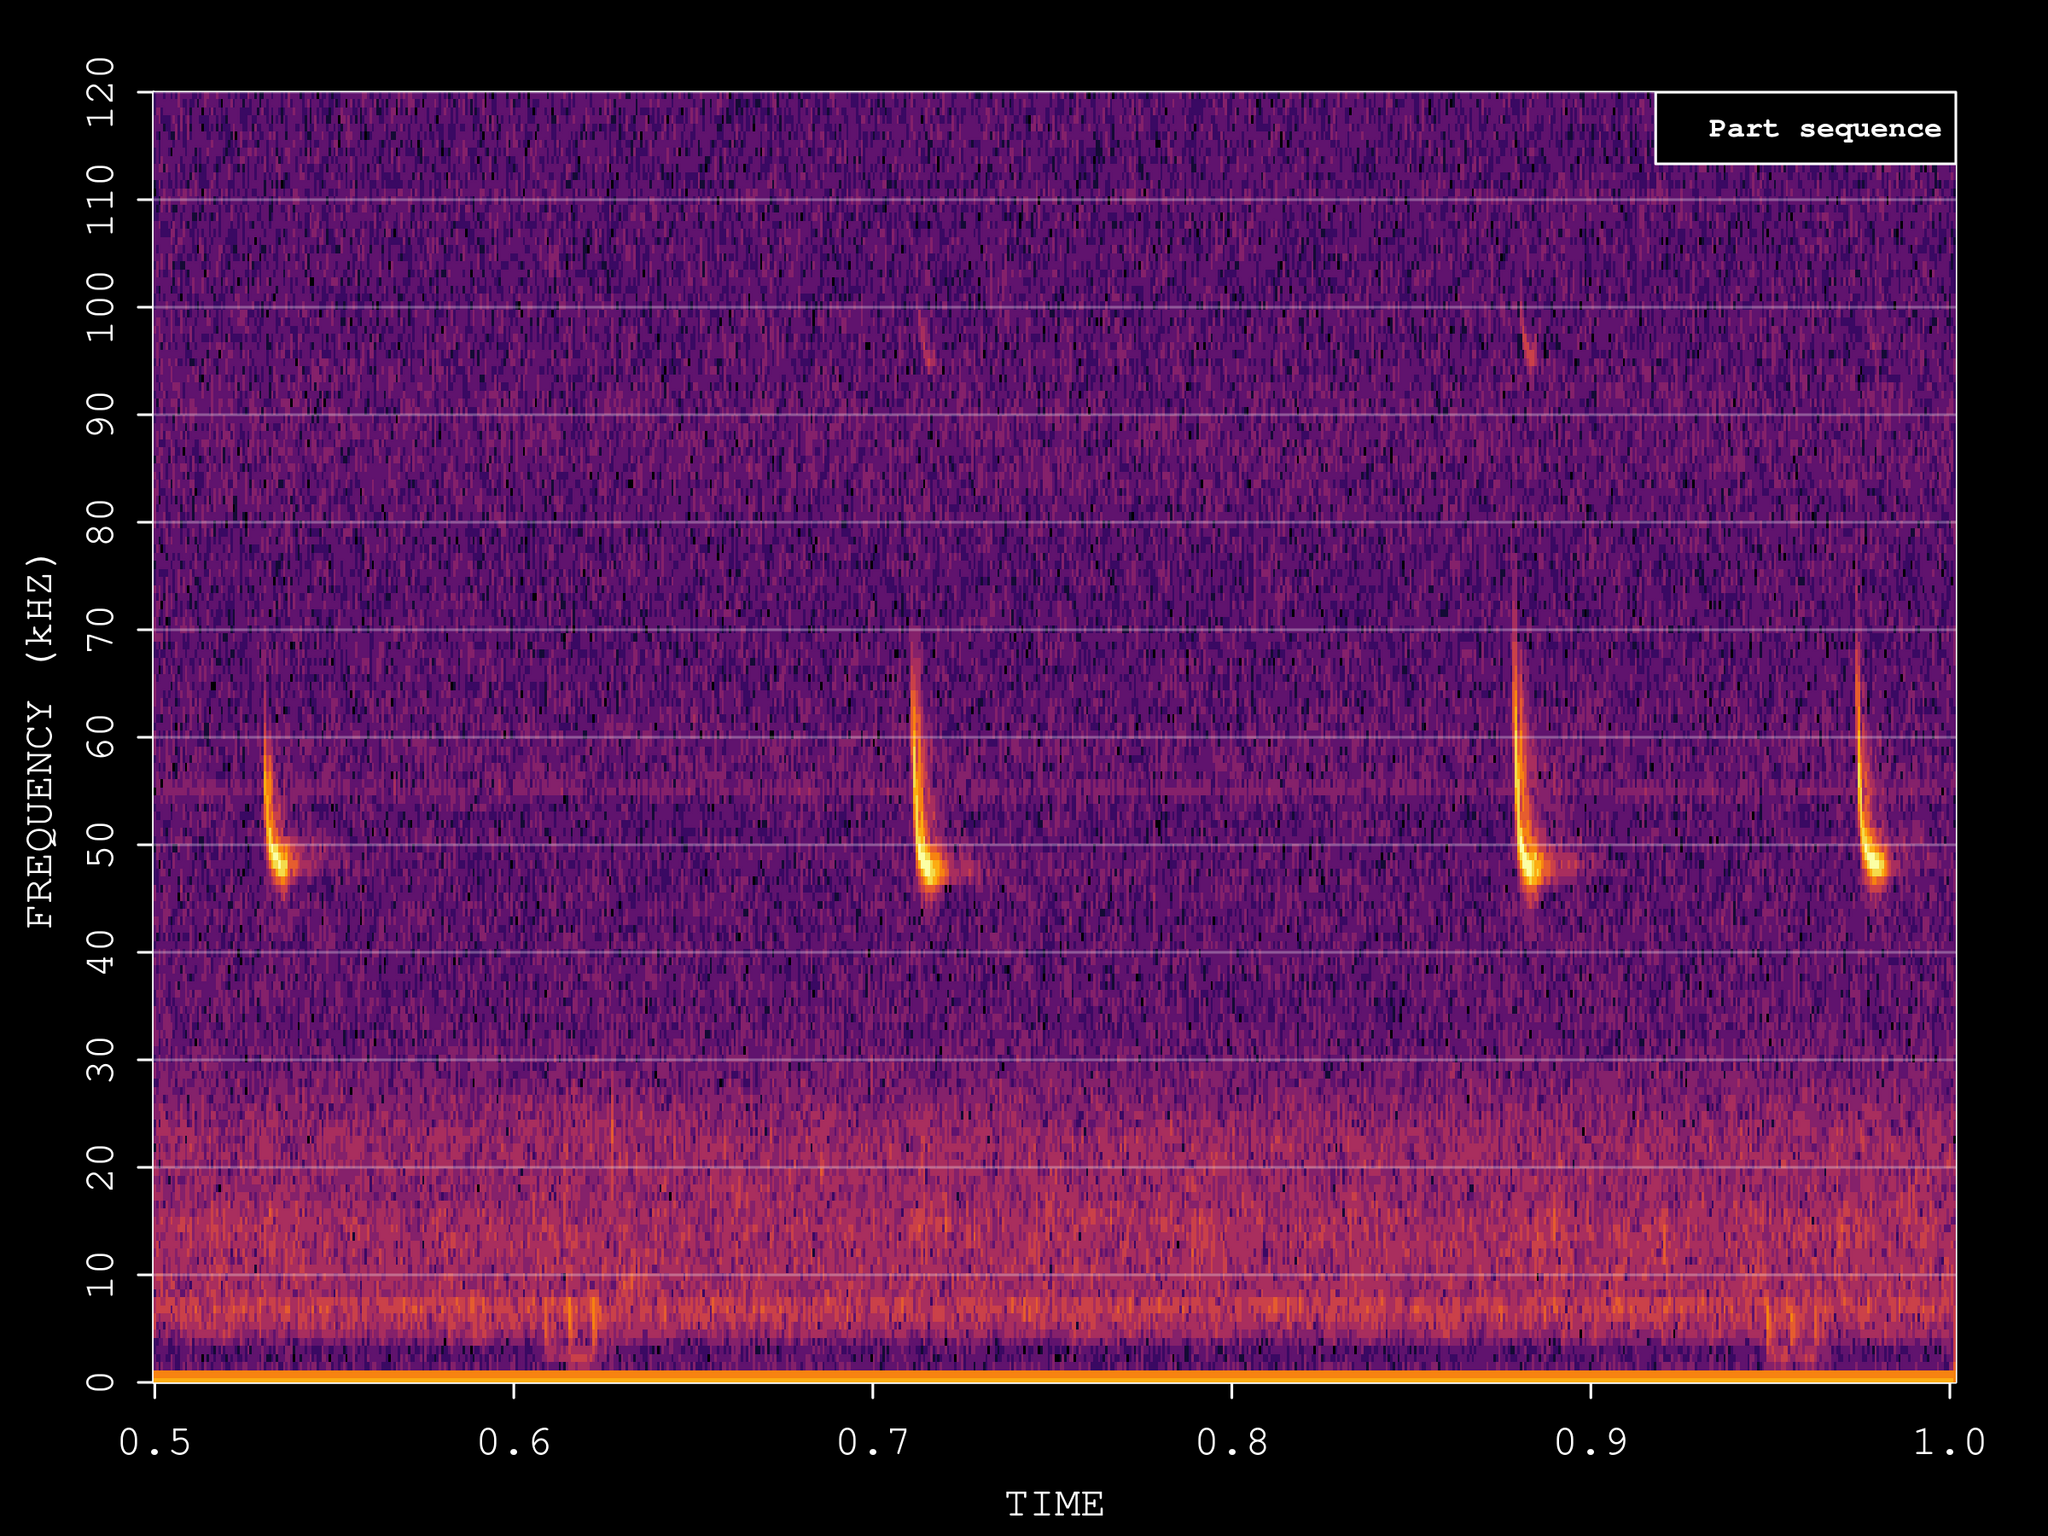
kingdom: Animalia
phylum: Chordata
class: Mammalia
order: Chiroptera
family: Vespertilionidae
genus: Pipistrellus
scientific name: Pipistrellus pipistrellus
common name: Common pipistrelle
